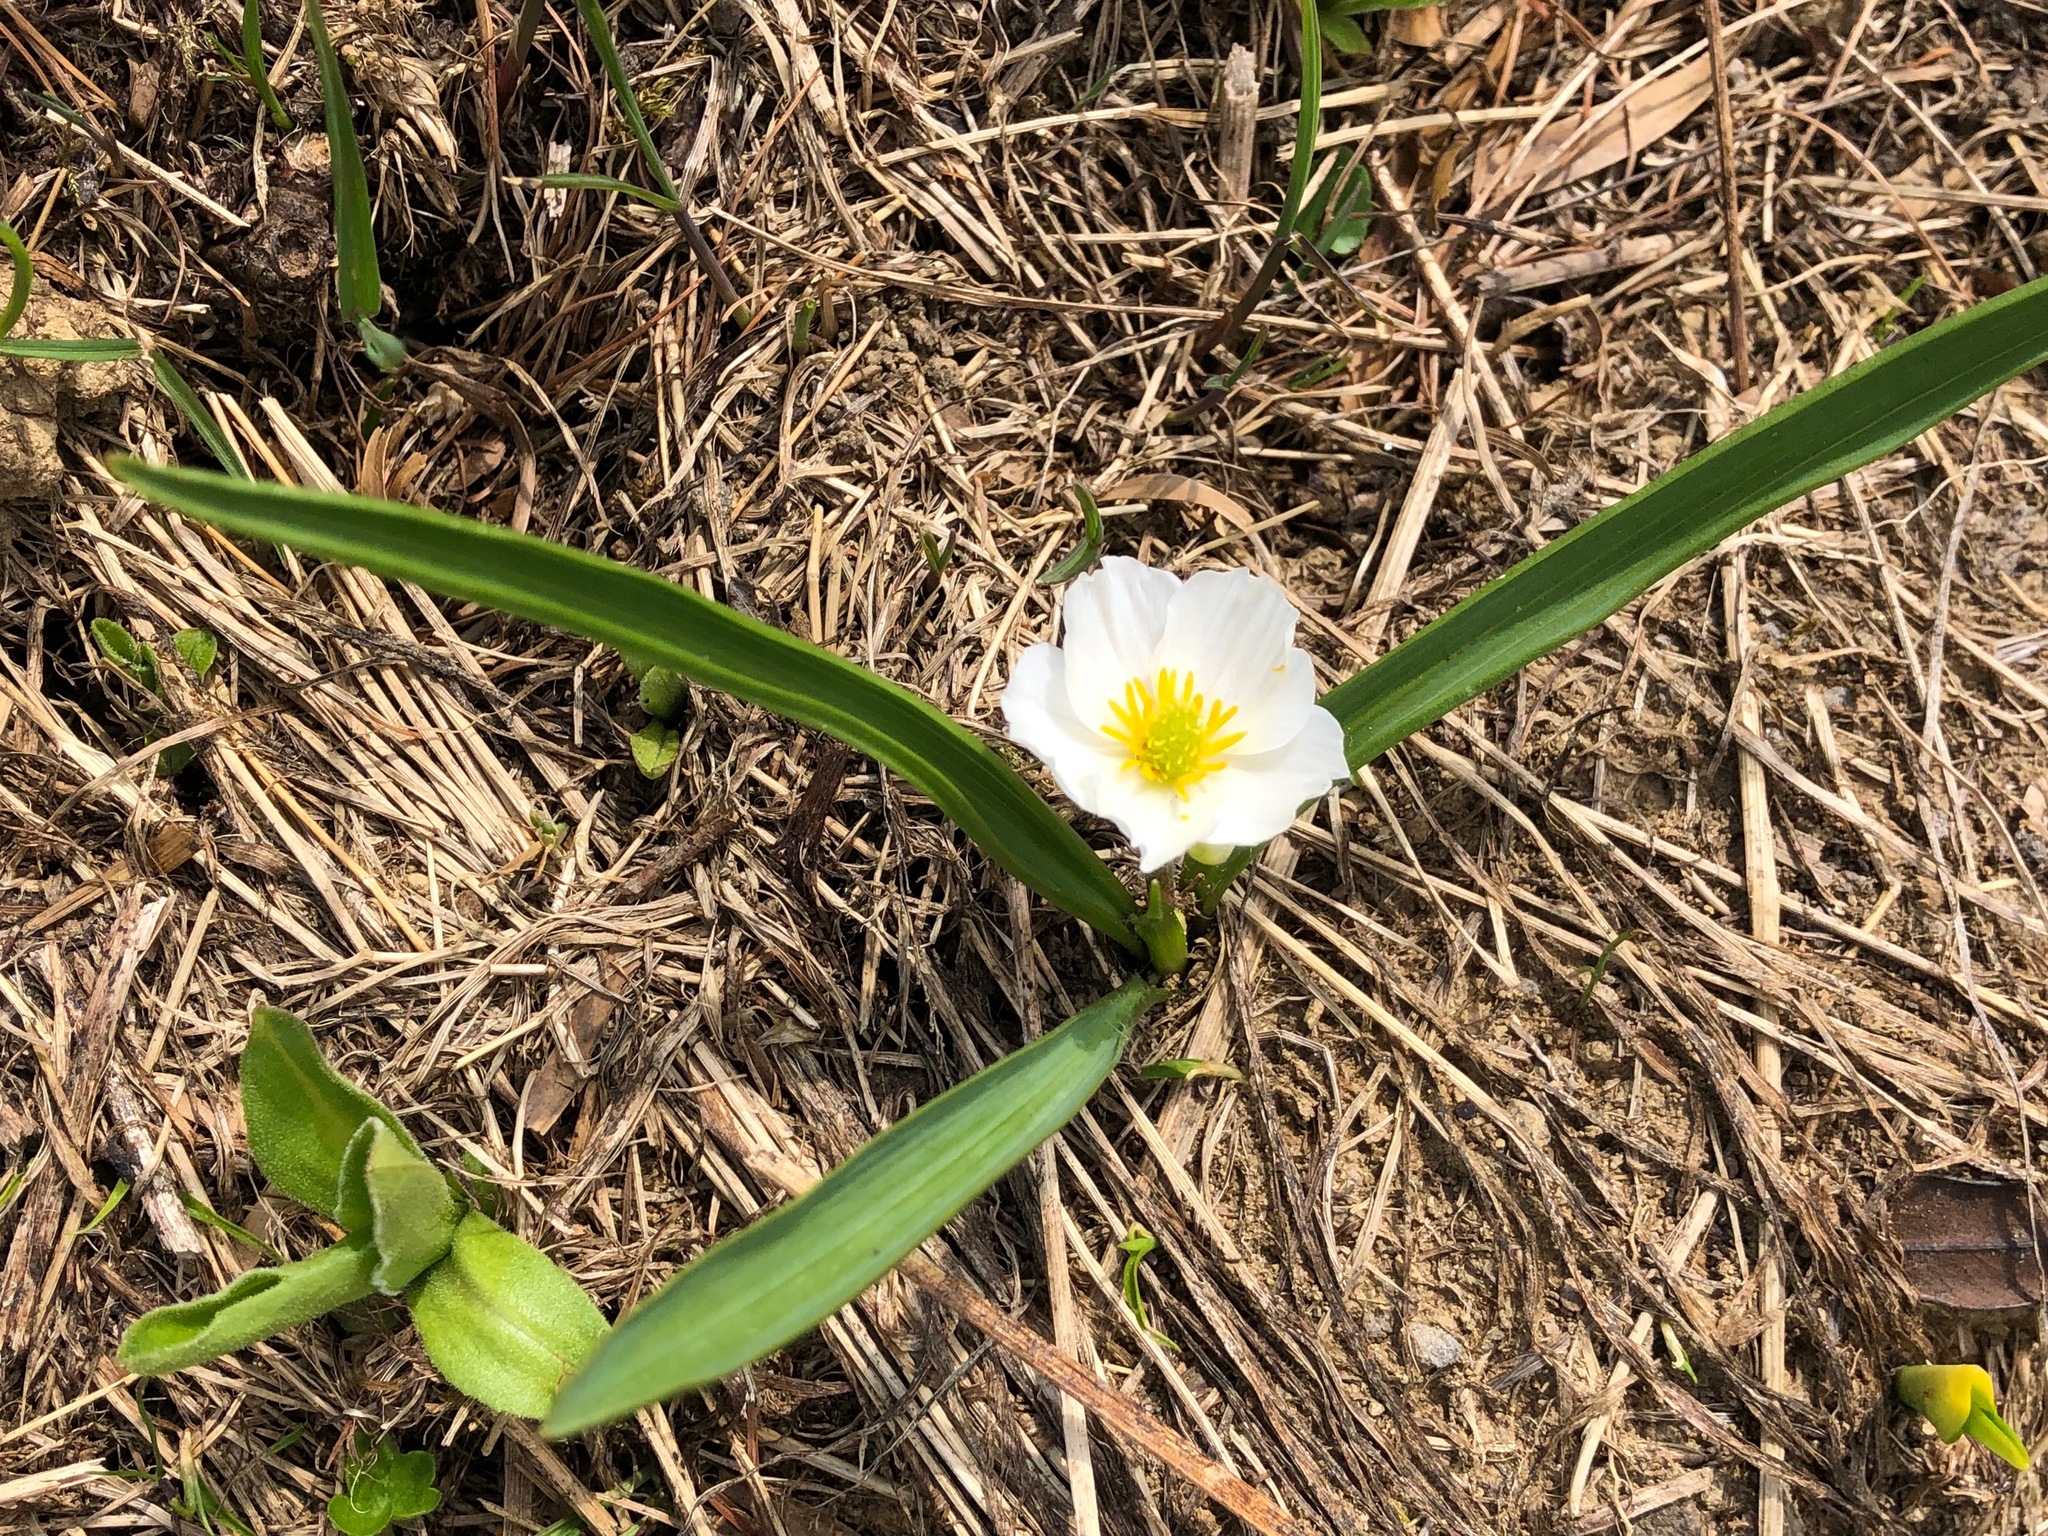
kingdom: Plantae
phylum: Tracheophyta
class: Magnoliopsida
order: Ranunculales
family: Ranunculaceae
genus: Ranunculus
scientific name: Ranunculus kuepferi
